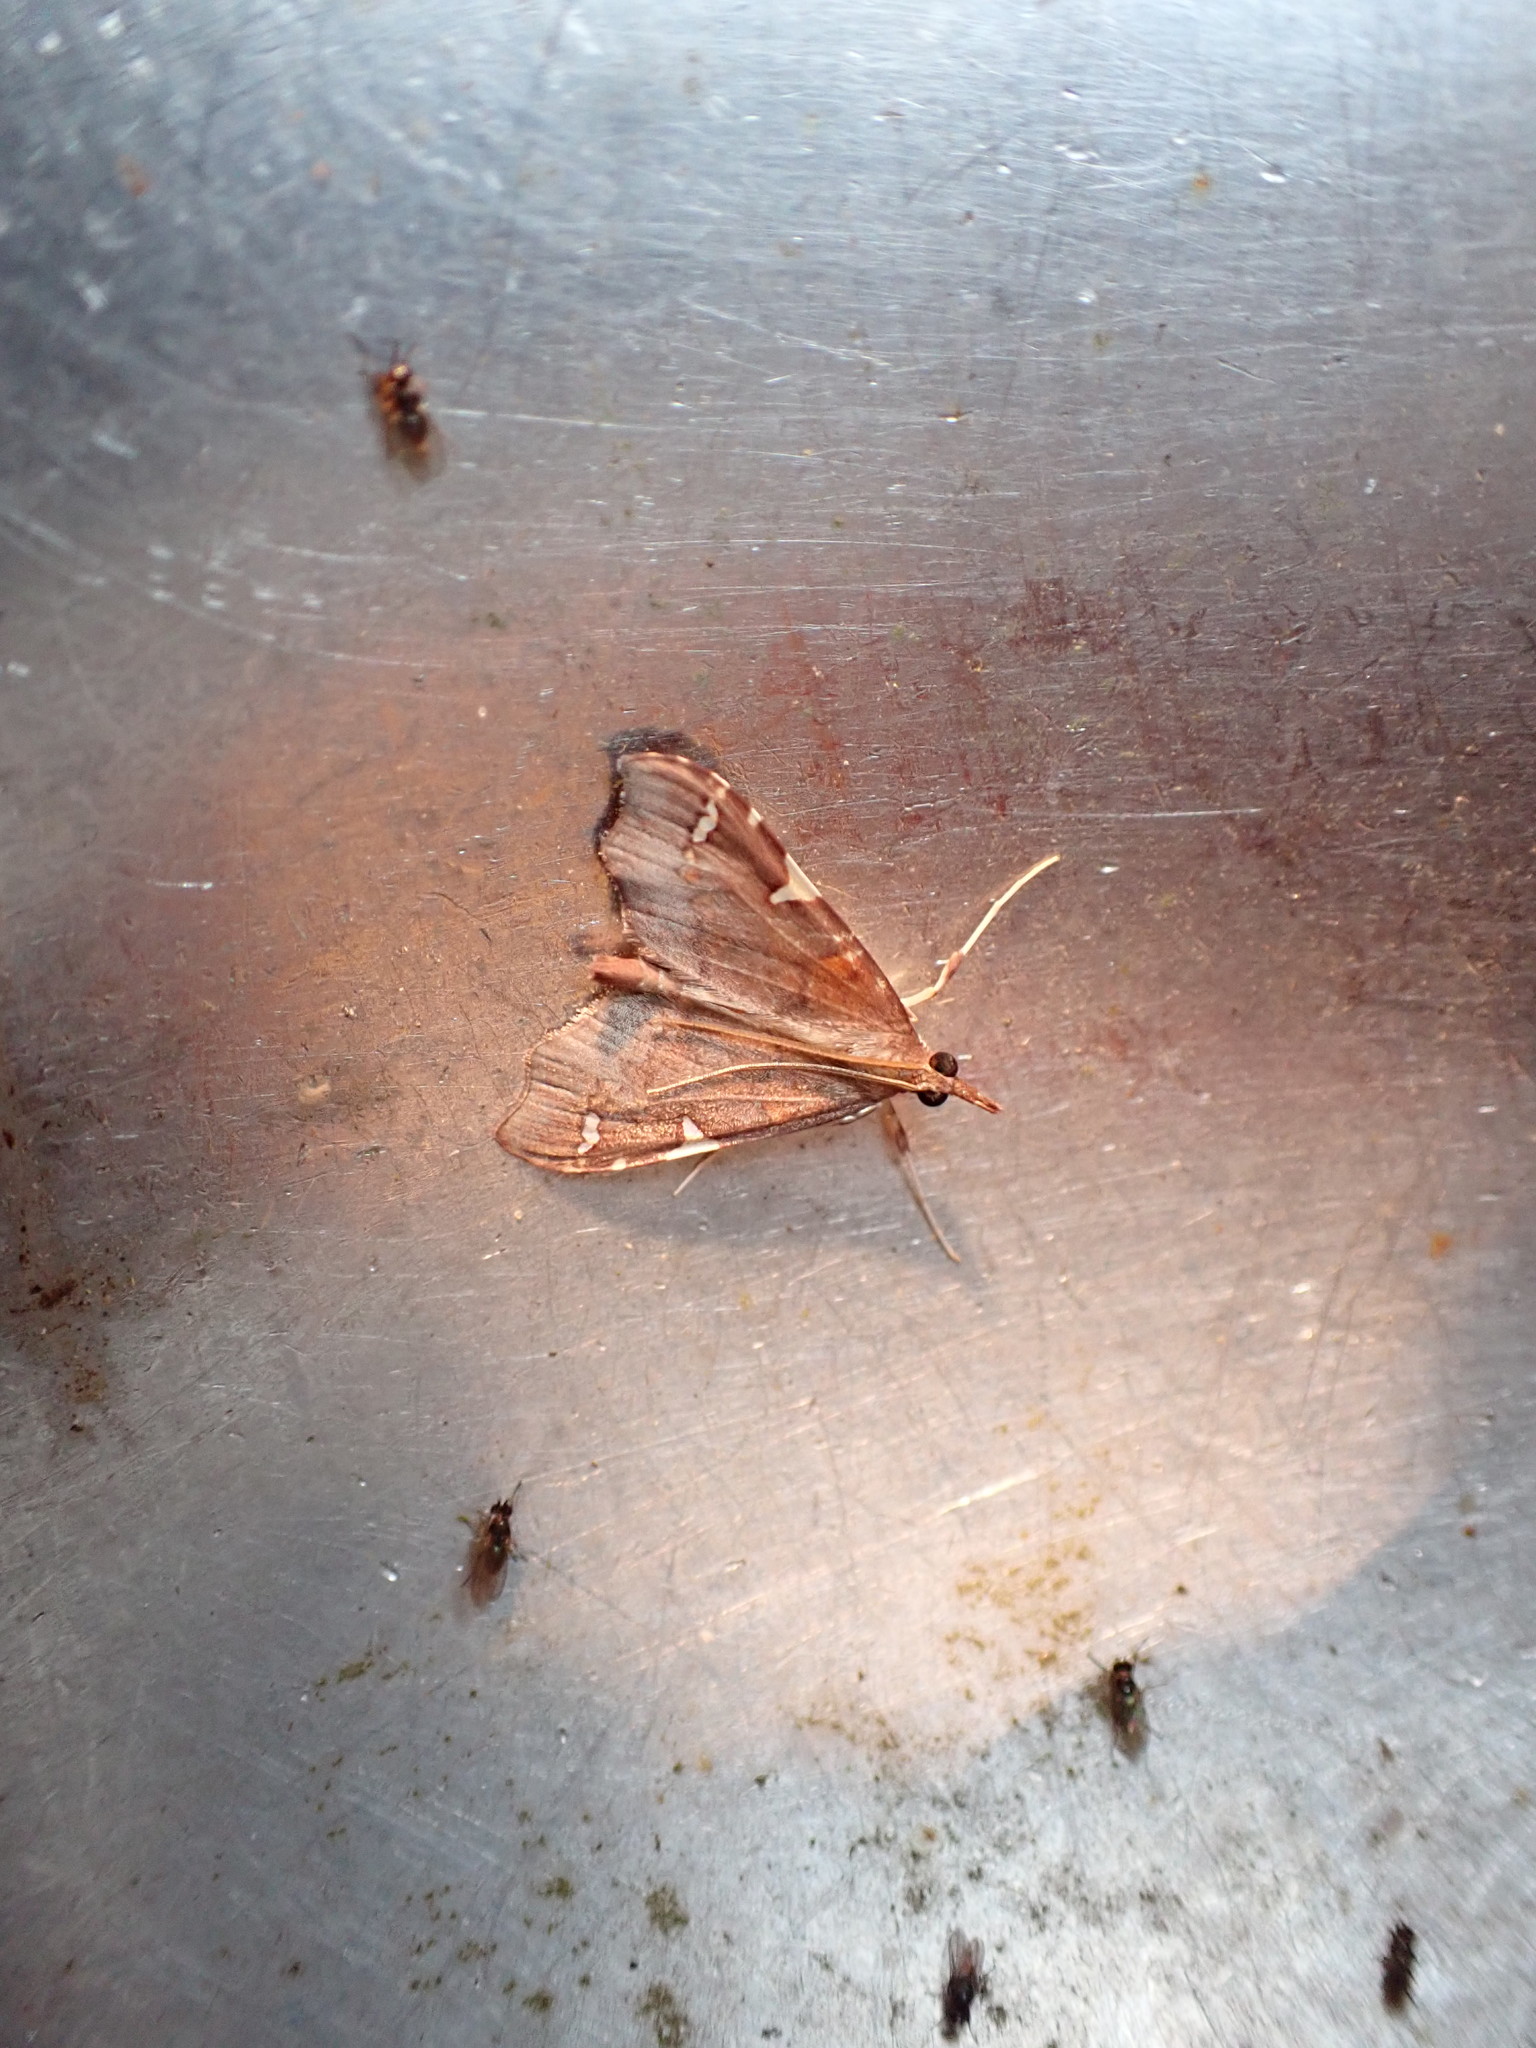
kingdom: Animalia
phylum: Arthropoda
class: Insecta
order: Lepidoptera
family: Crambidae
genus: Deana
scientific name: Deana hybreasalis
